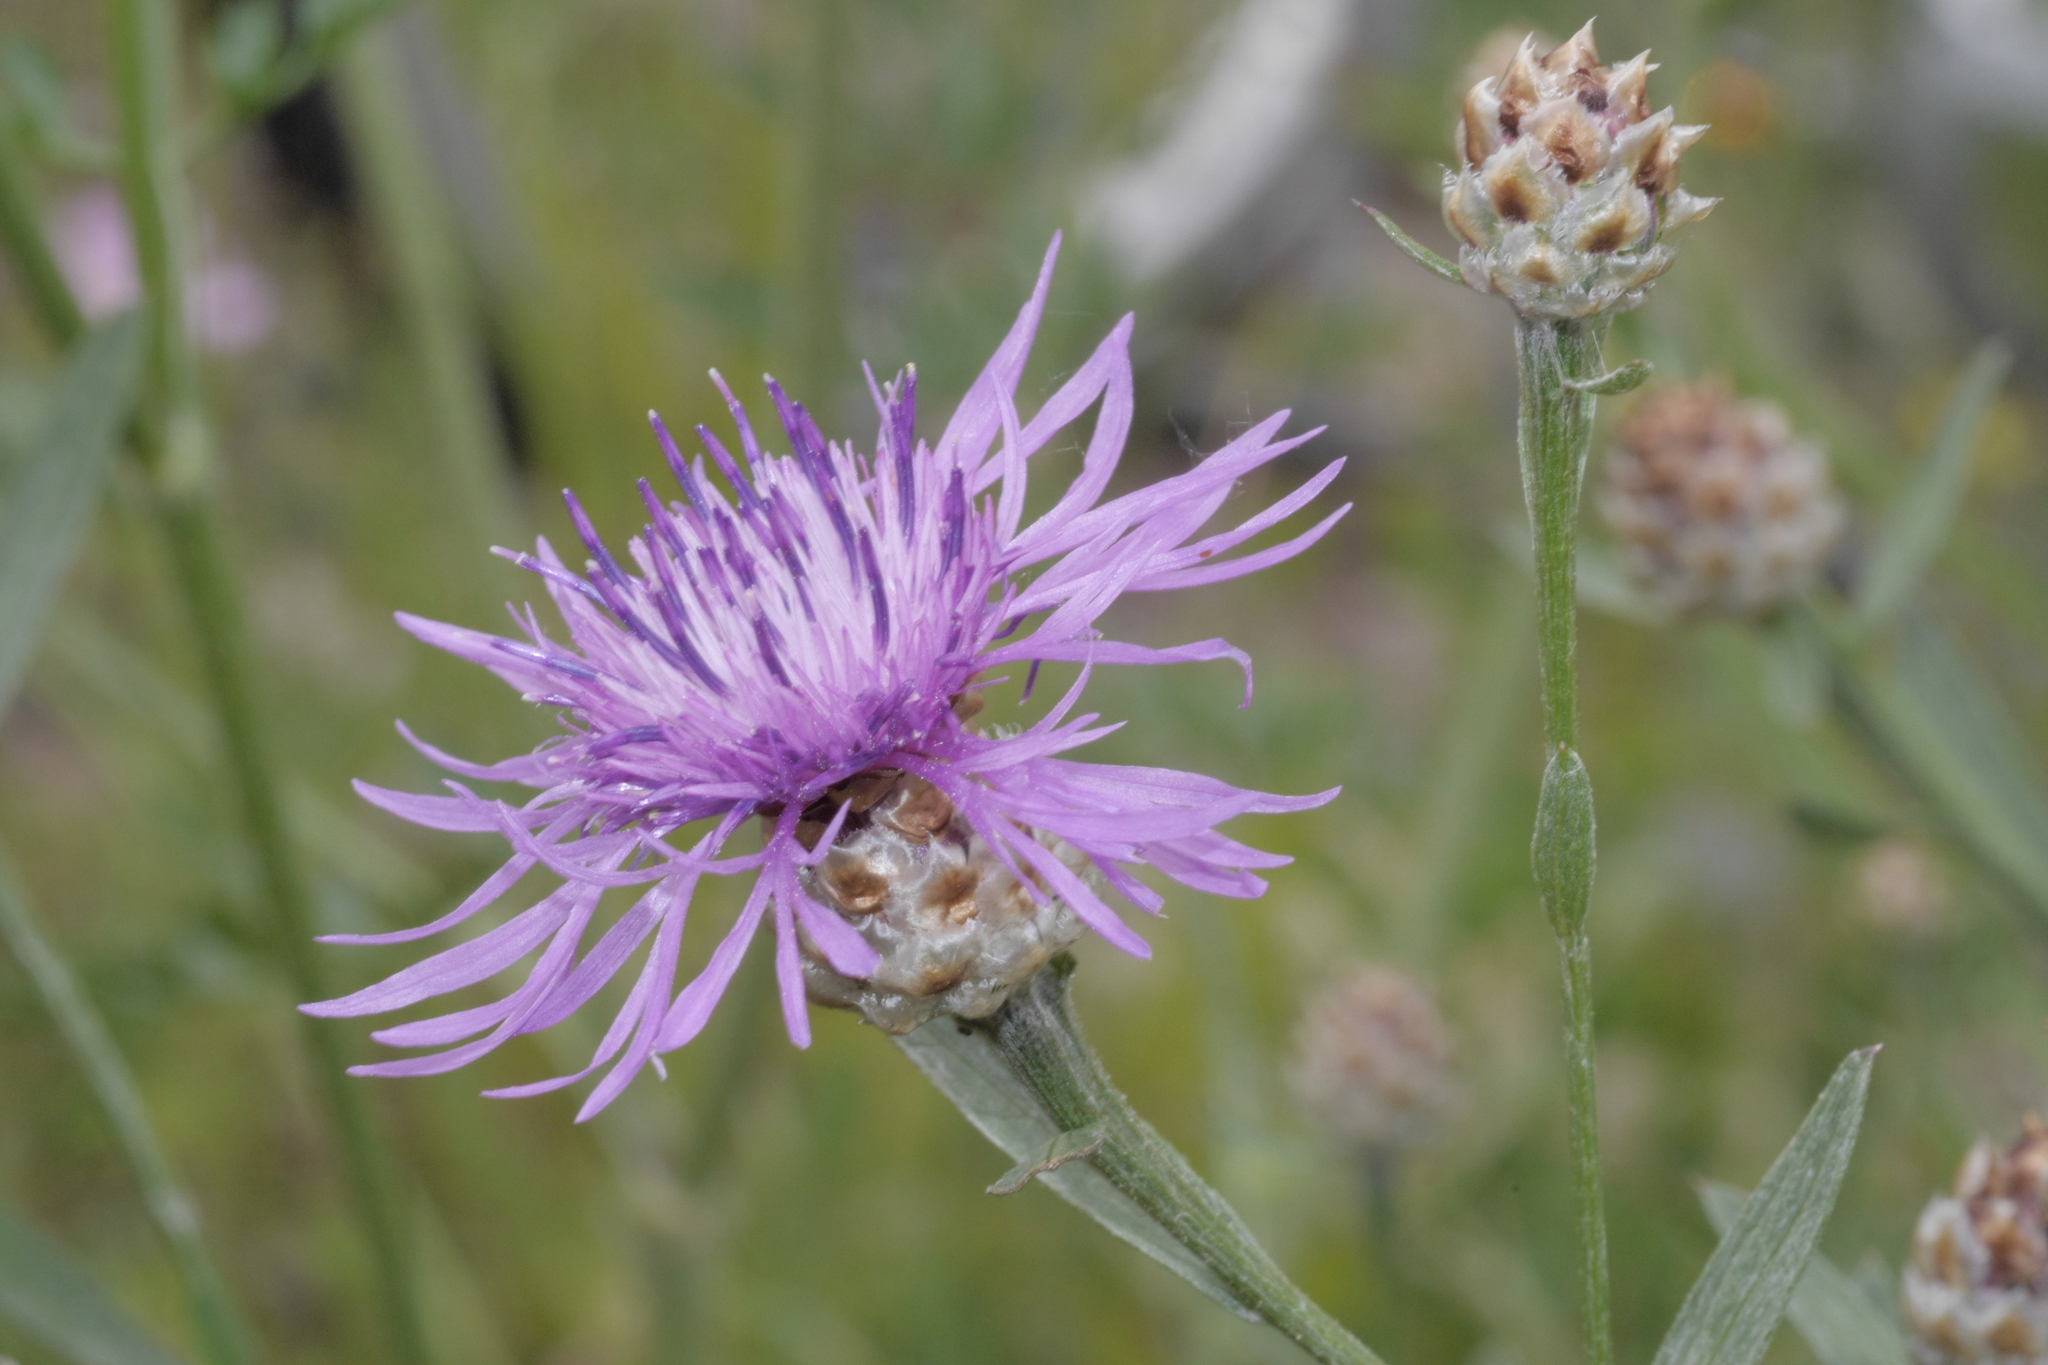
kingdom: Plantae
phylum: Tracheophyta
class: Magnoliopsida
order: Asterales
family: Asteraceae
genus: Centaurea
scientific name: Centaurea jacea
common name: Brown knapweed
